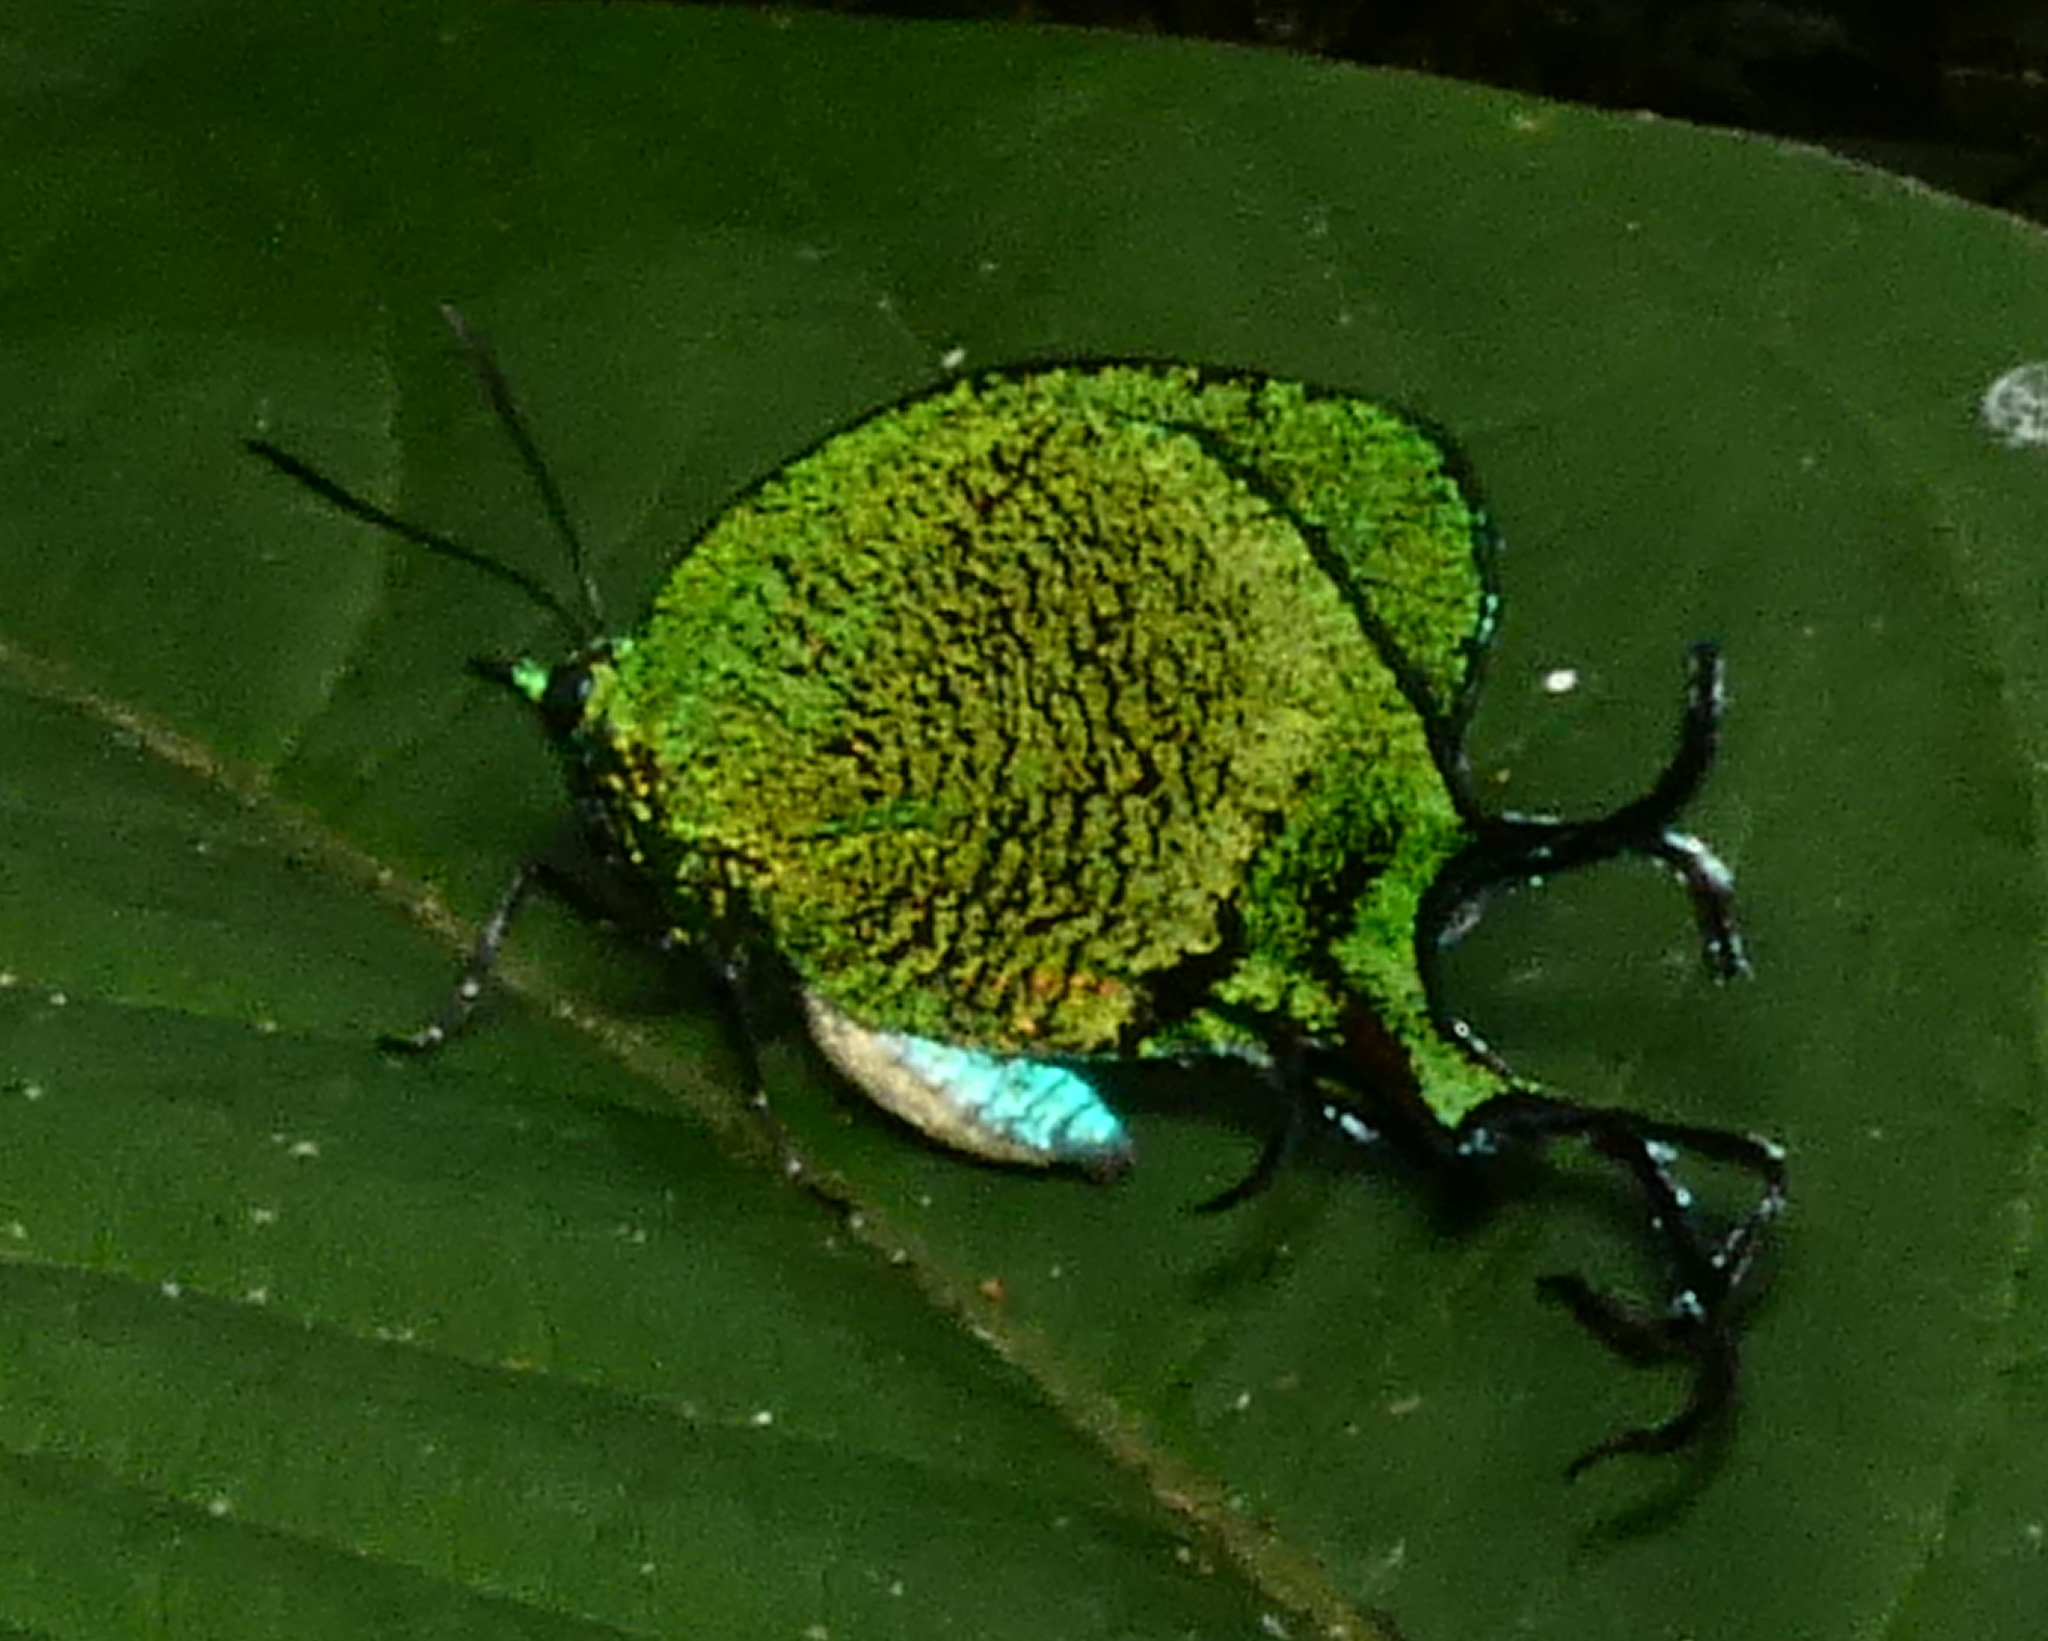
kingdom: Animalia
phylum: Arthropoda
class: Insecta
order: Lepidoptera
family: Lycaenidae
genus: Arcas
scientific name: Arcas imperialis
